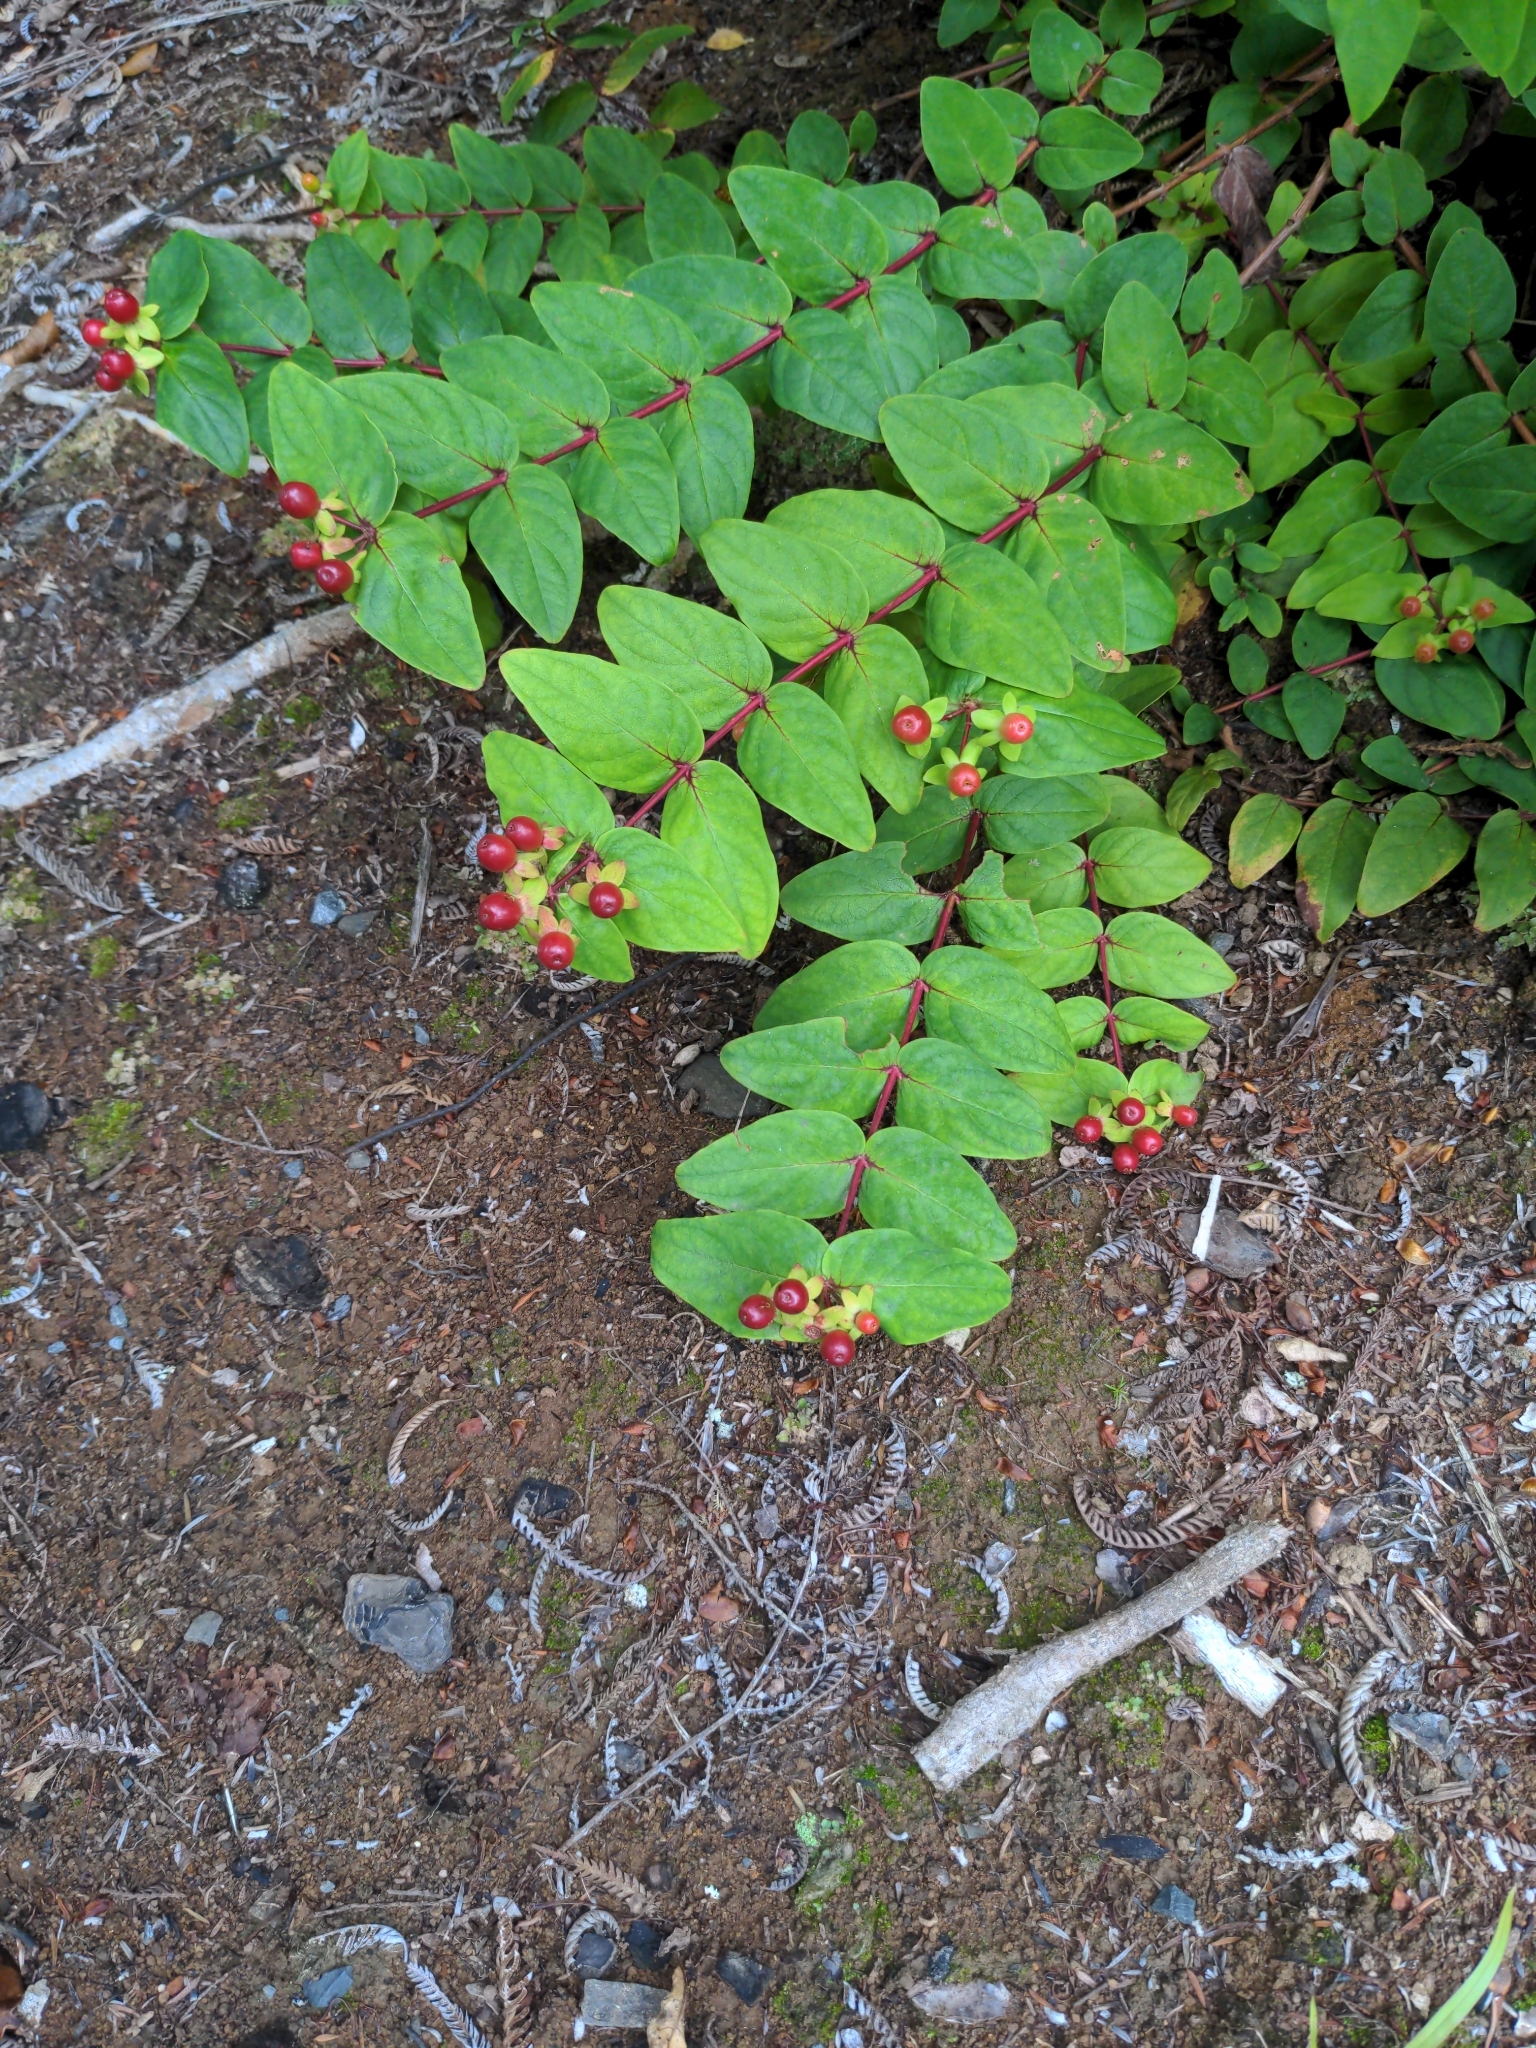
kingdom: Plantae
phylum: Tracheophyta
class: Magnoliopsida
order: Malpighiales
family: Hypericaceae
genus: Hypericum
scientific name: Hypericum androsaemum
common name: Sweet-amber
